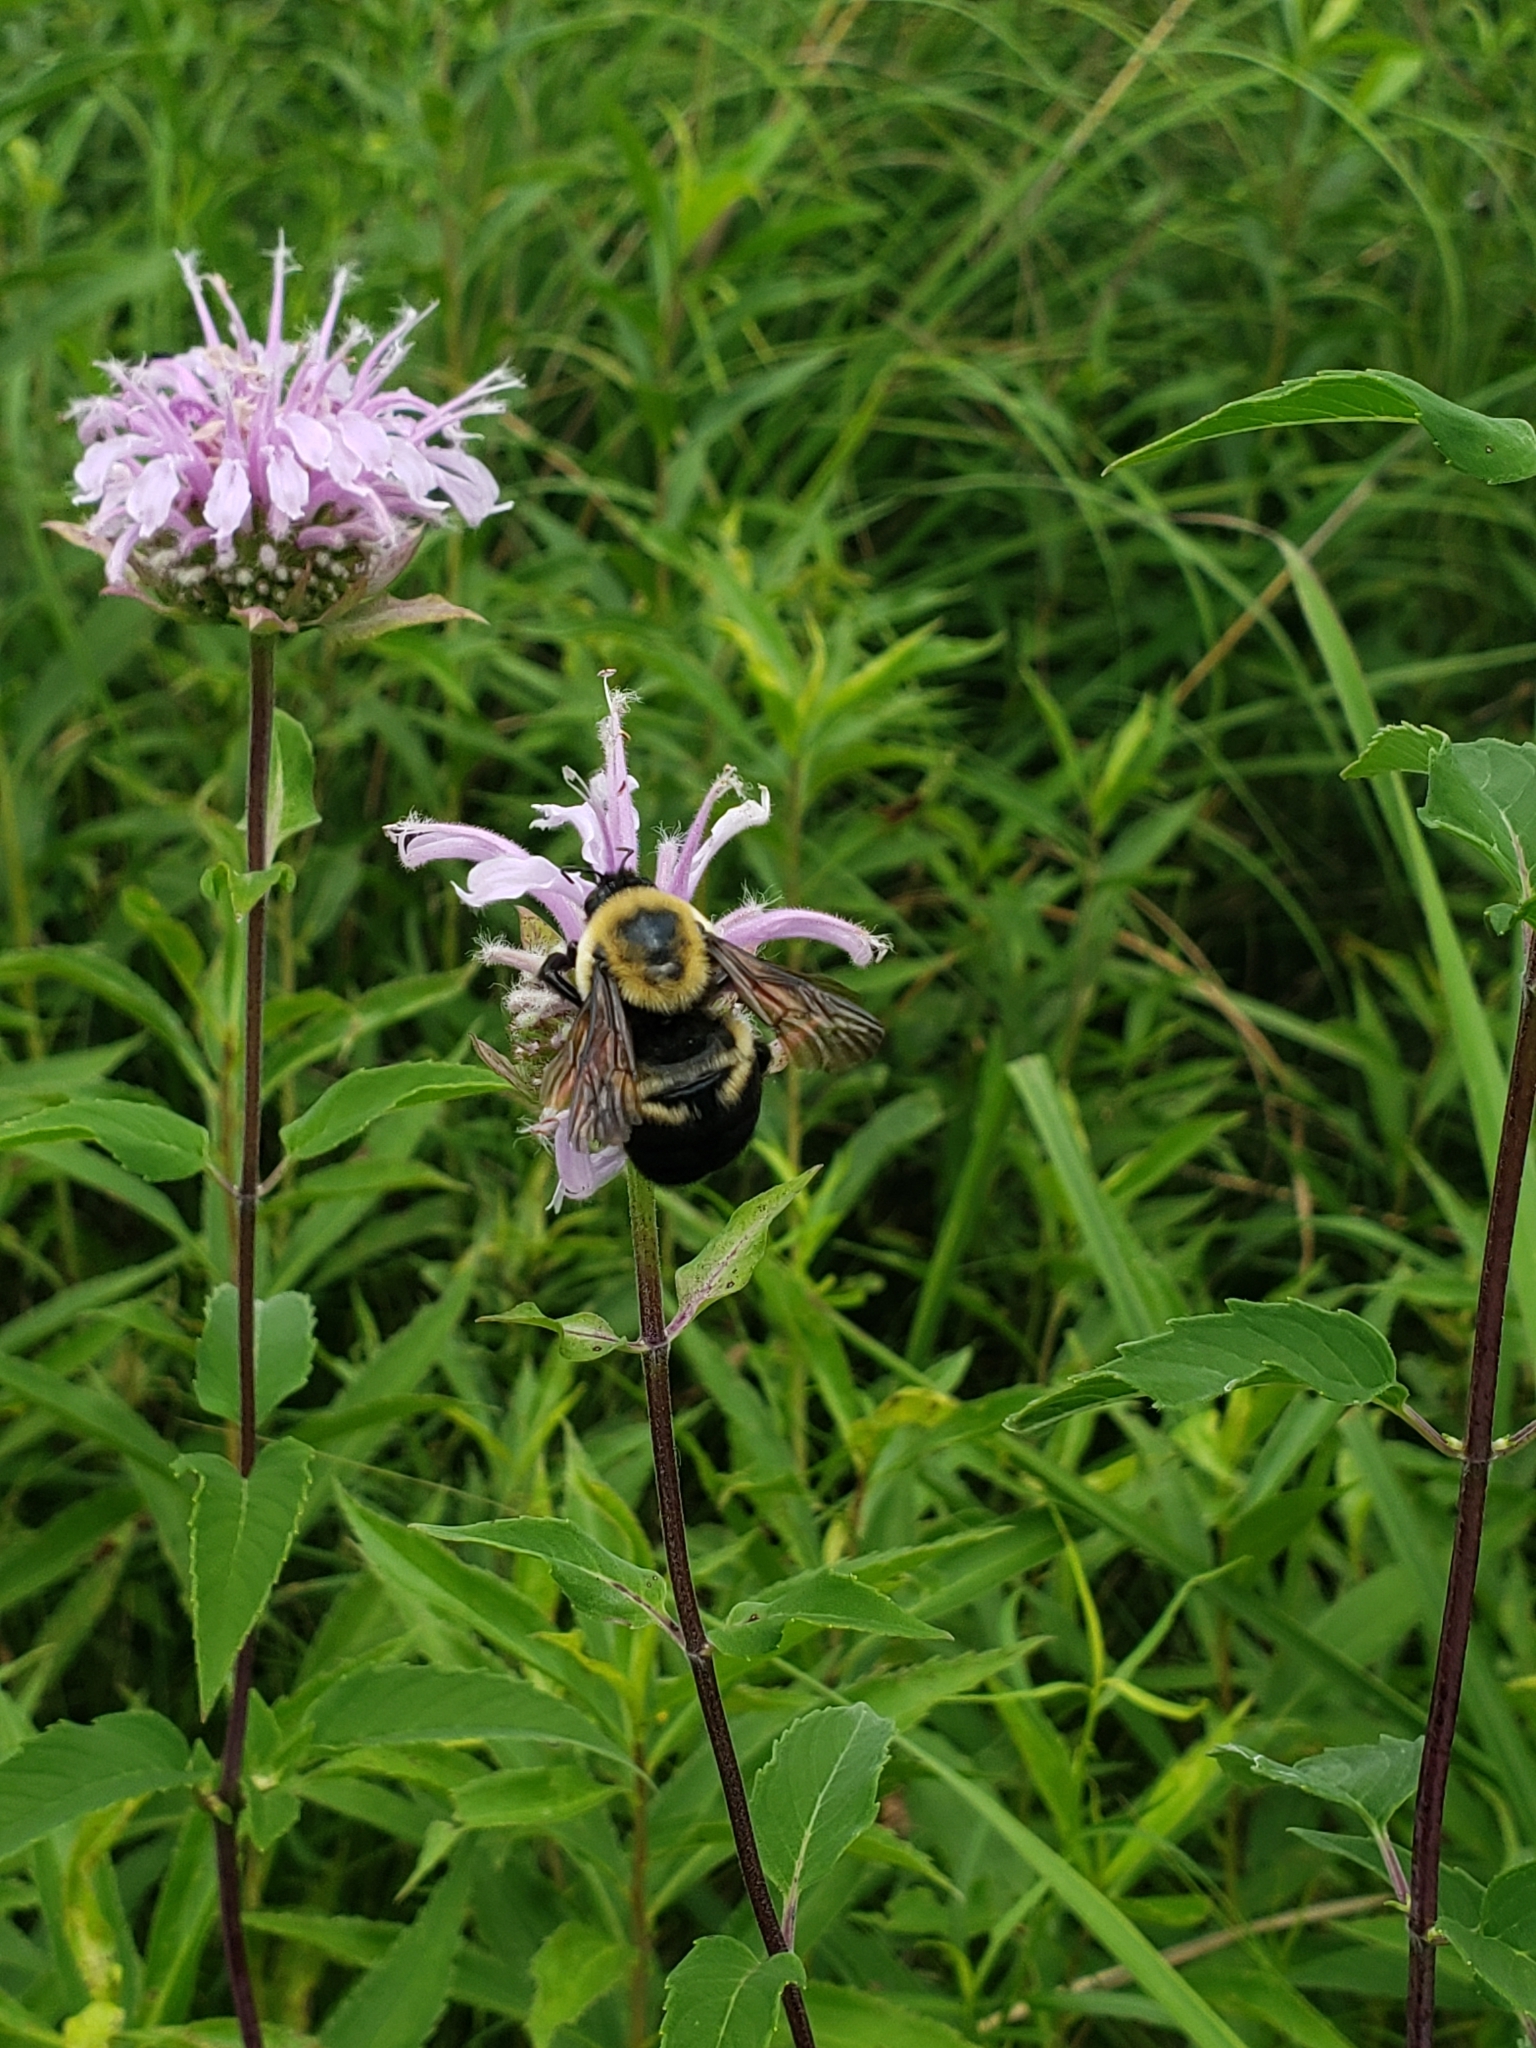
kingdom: Animalia
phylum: Arthropoda
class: Insecta
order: Hymenoptera
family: Apidae
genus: Bombus
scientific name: Bombus griseocollis
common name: Brown-belted bumble bee
